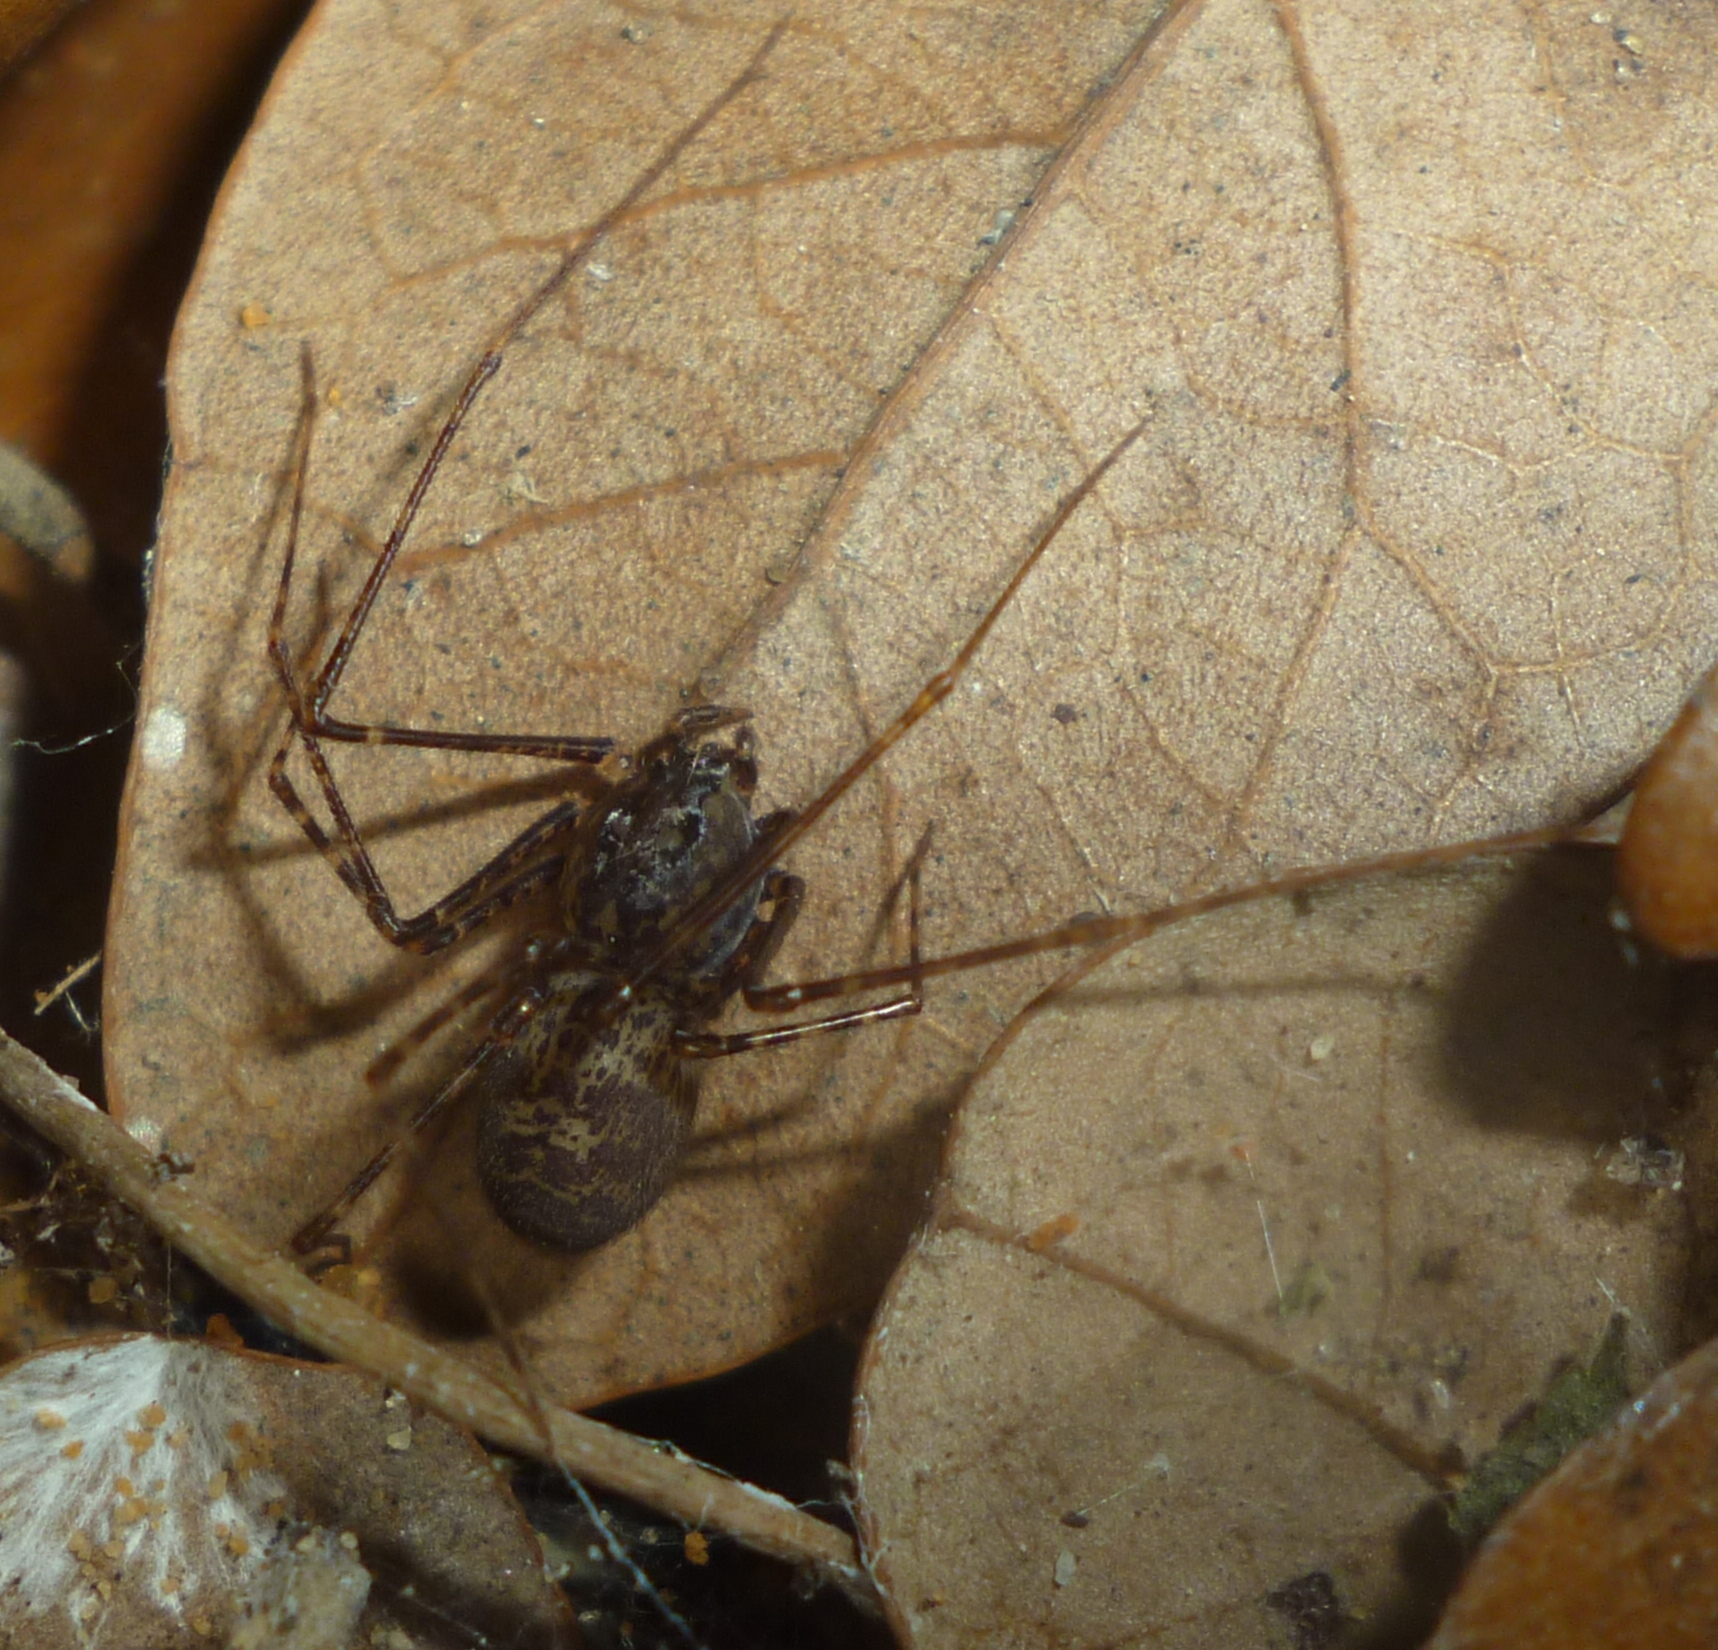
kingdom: Animalia
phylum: Arthropoda
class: Arachnida
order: Araneae
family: Scytodidae
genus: Scytodes
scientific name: Scytodes globula
